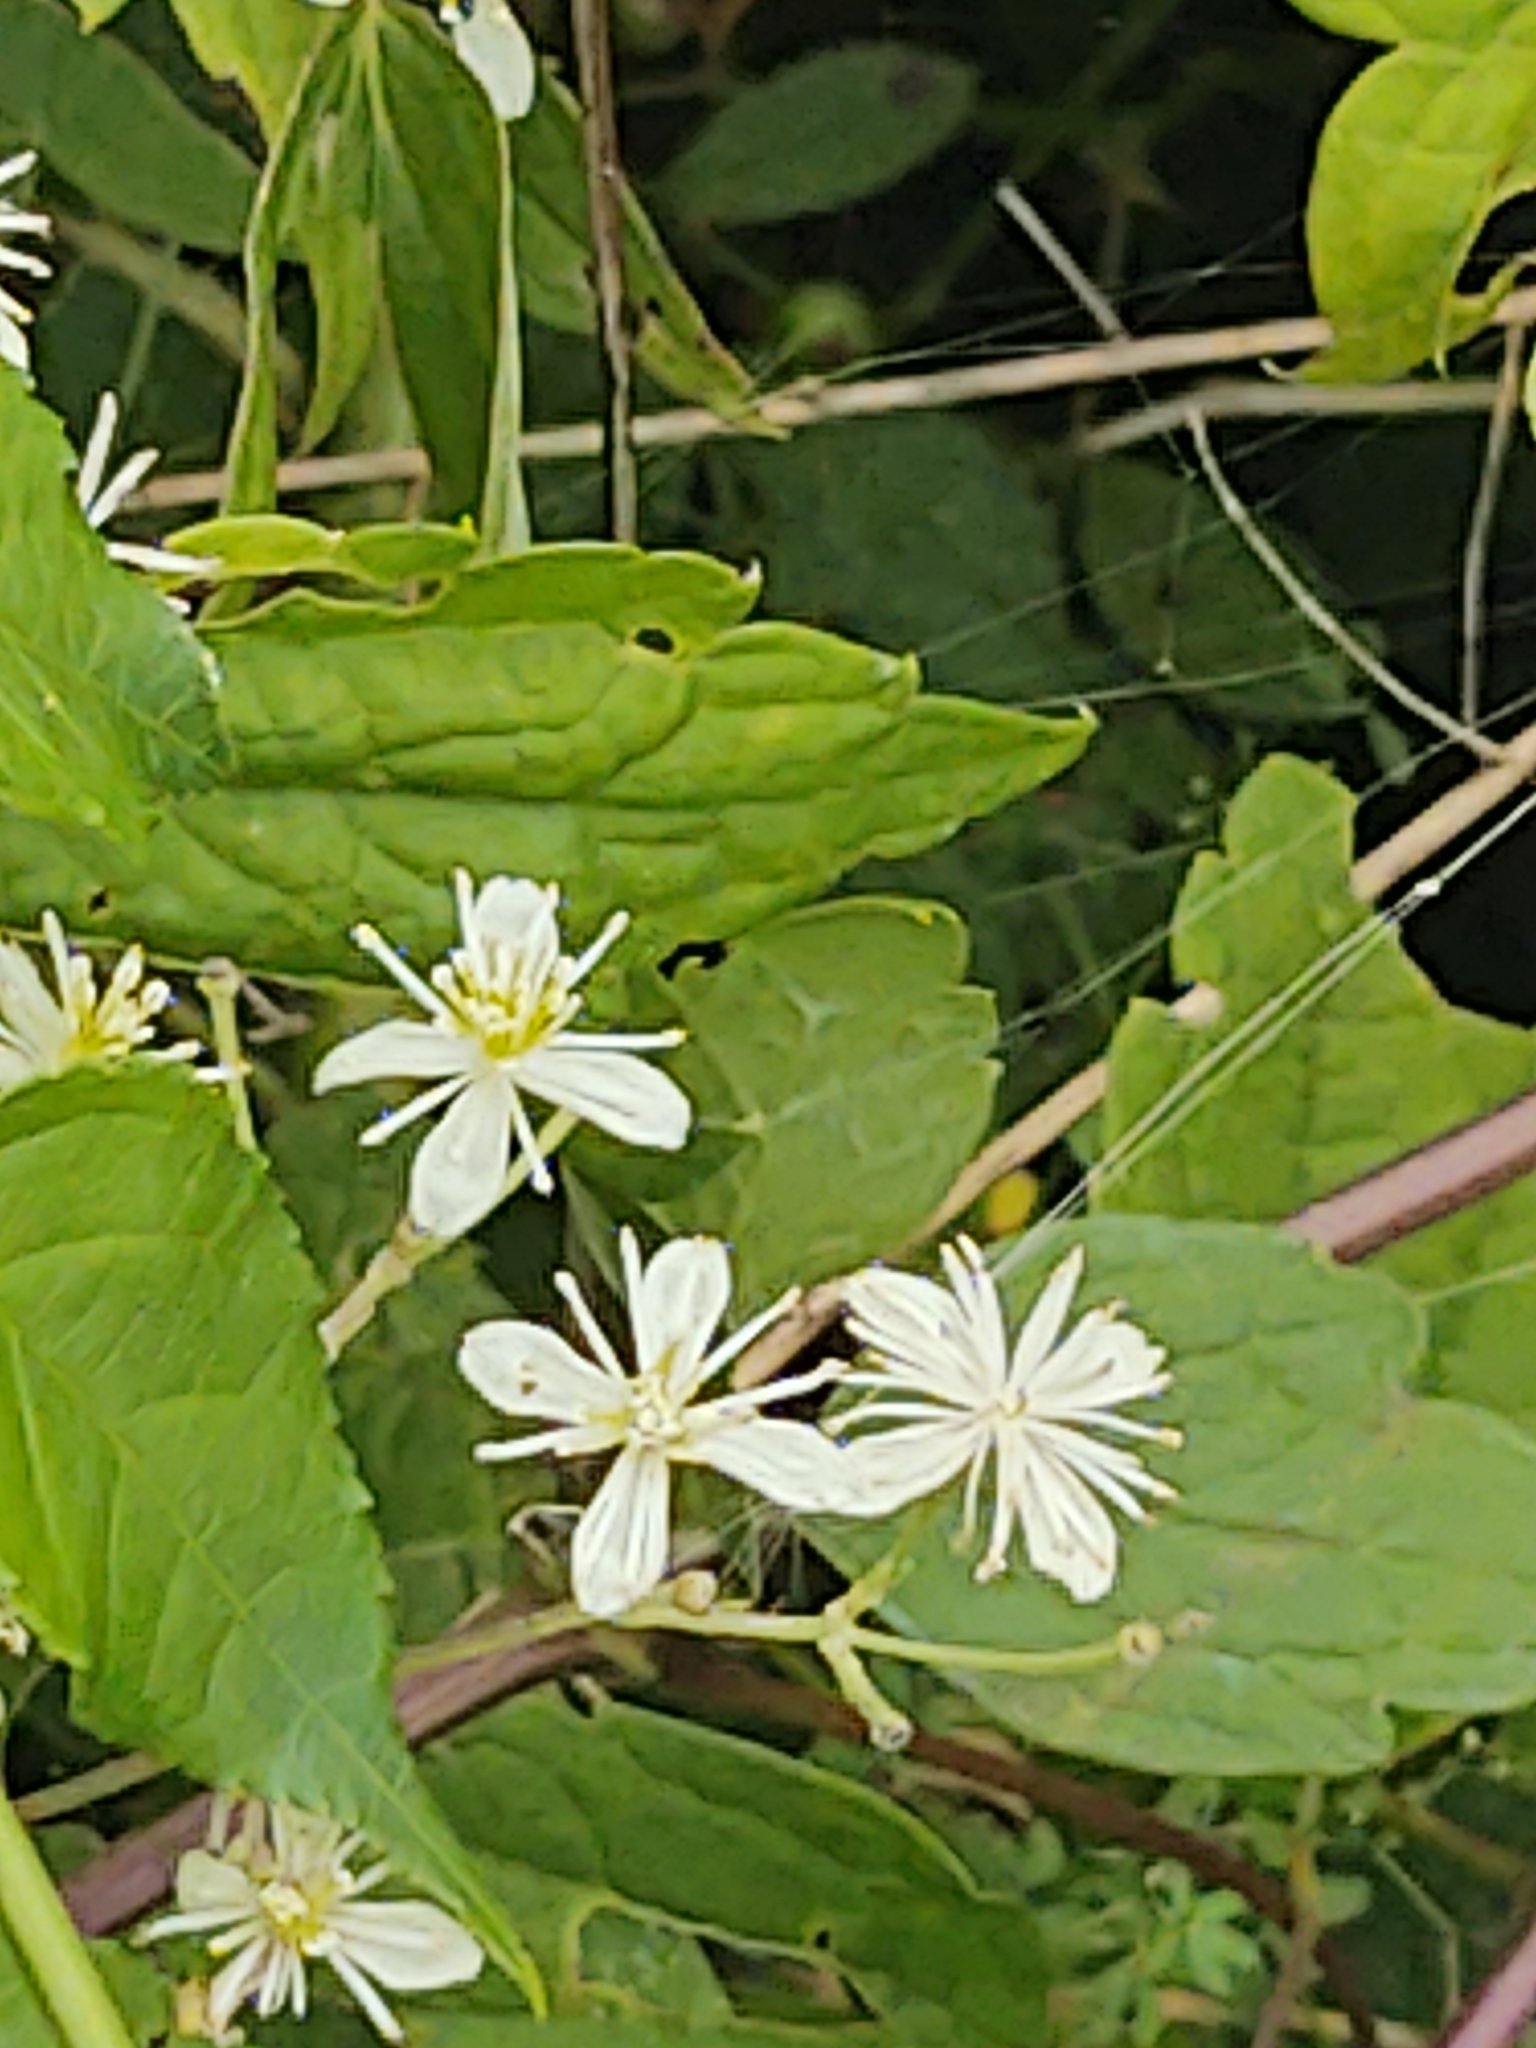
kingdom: Plantae
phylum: Tracheophyta
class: Magnoliopsida
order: Ranunculales
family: Ranunculaceae
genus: Clematis
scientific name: Clematis virginiana
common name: Virgin's-bower
